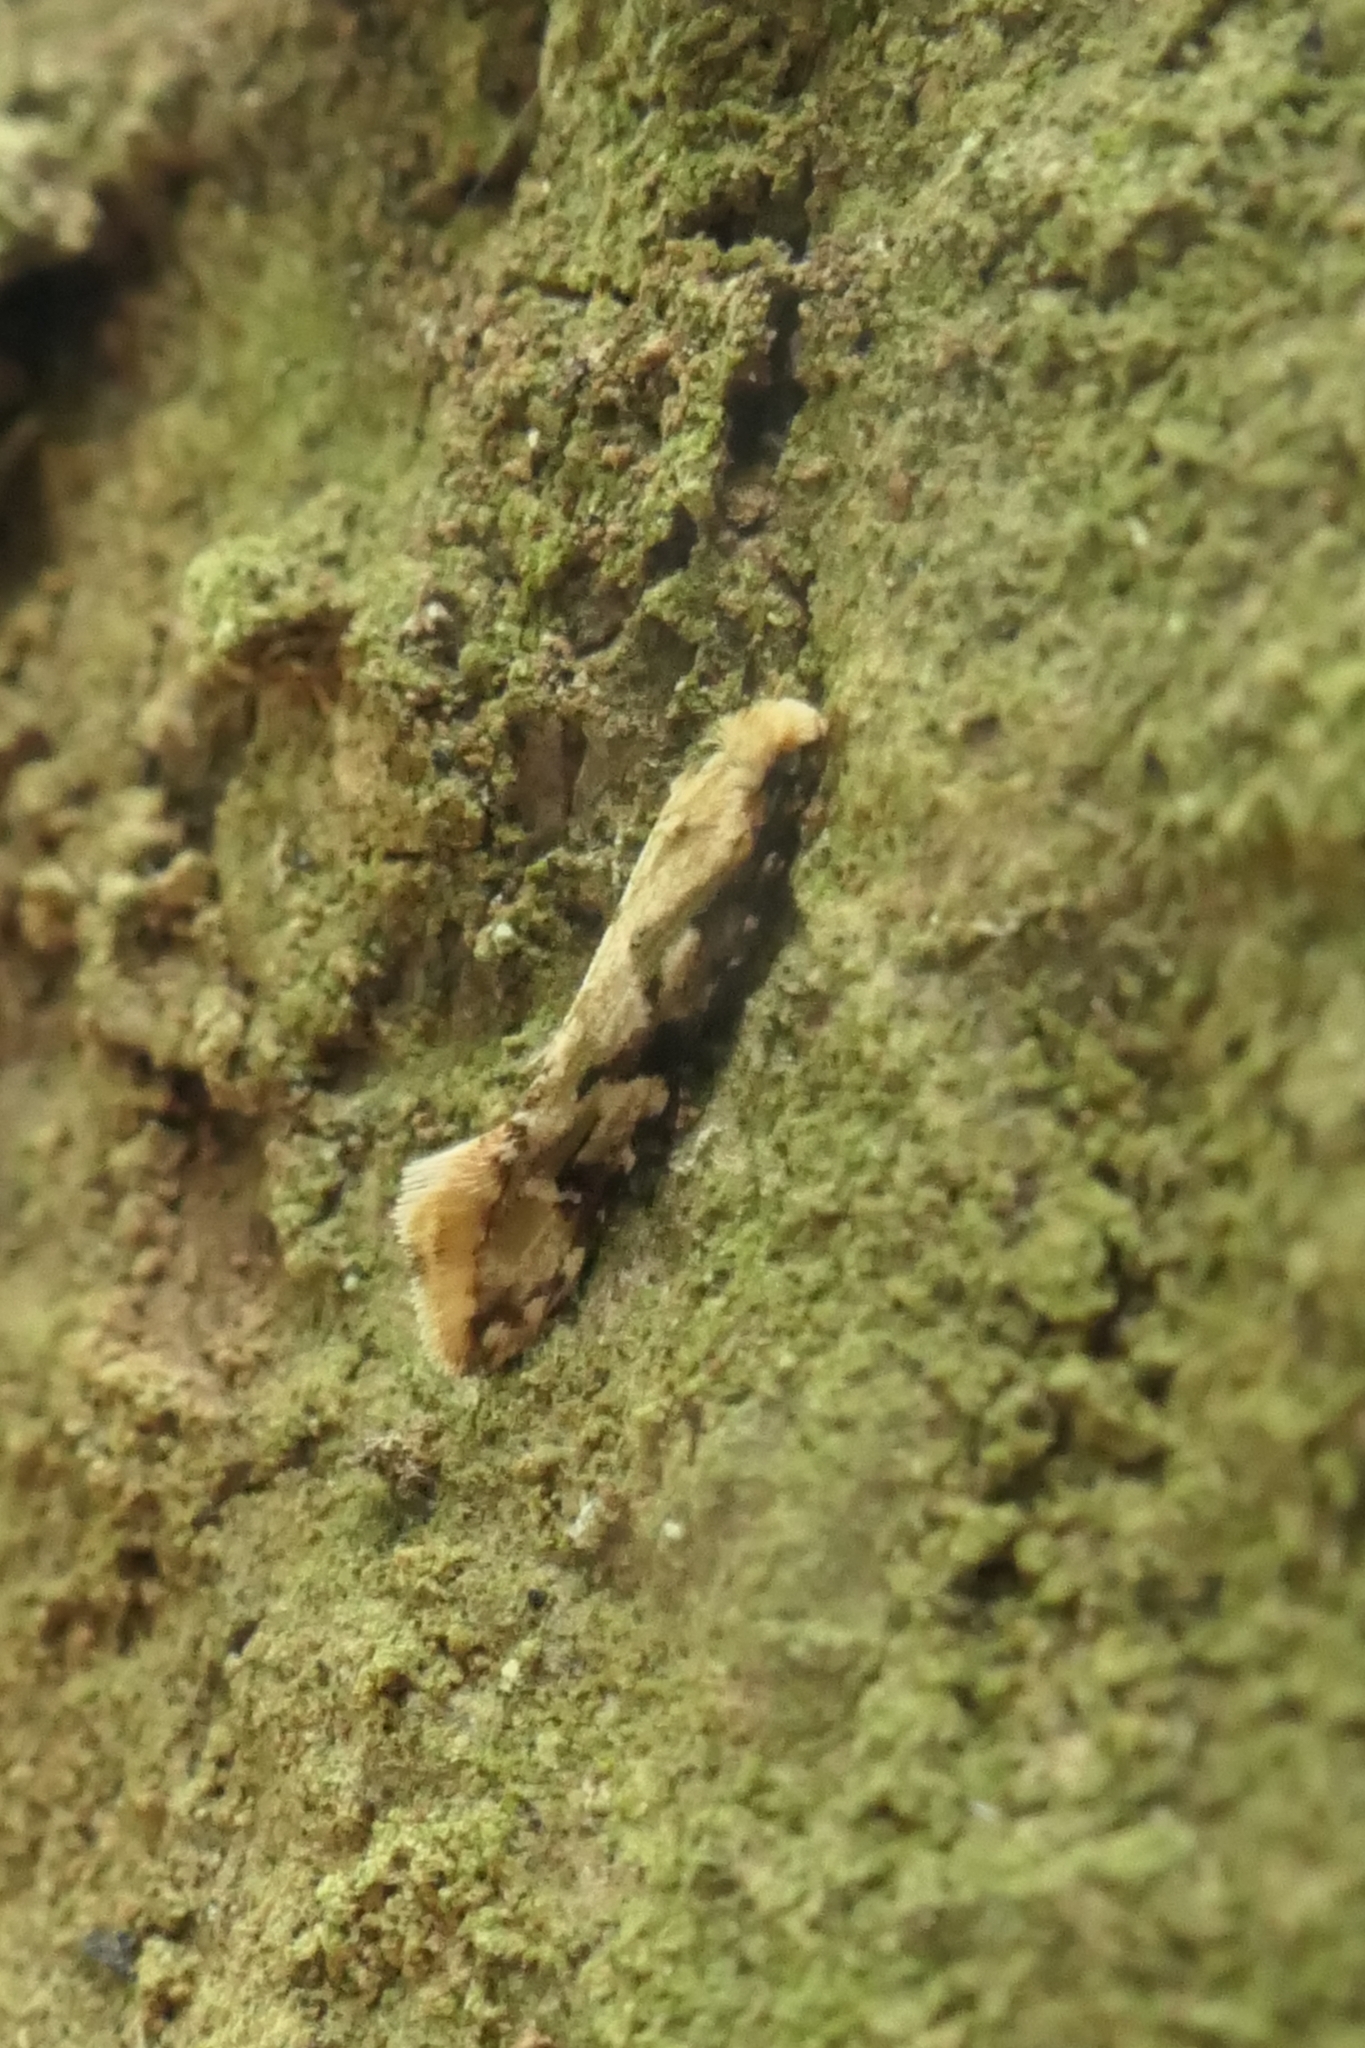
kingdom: Animalia
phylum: Arthropoda
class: Insecta
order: Lepidoptera
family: Tineidae
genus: Crypsitricha
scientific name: Crypsitricha mesotypa
